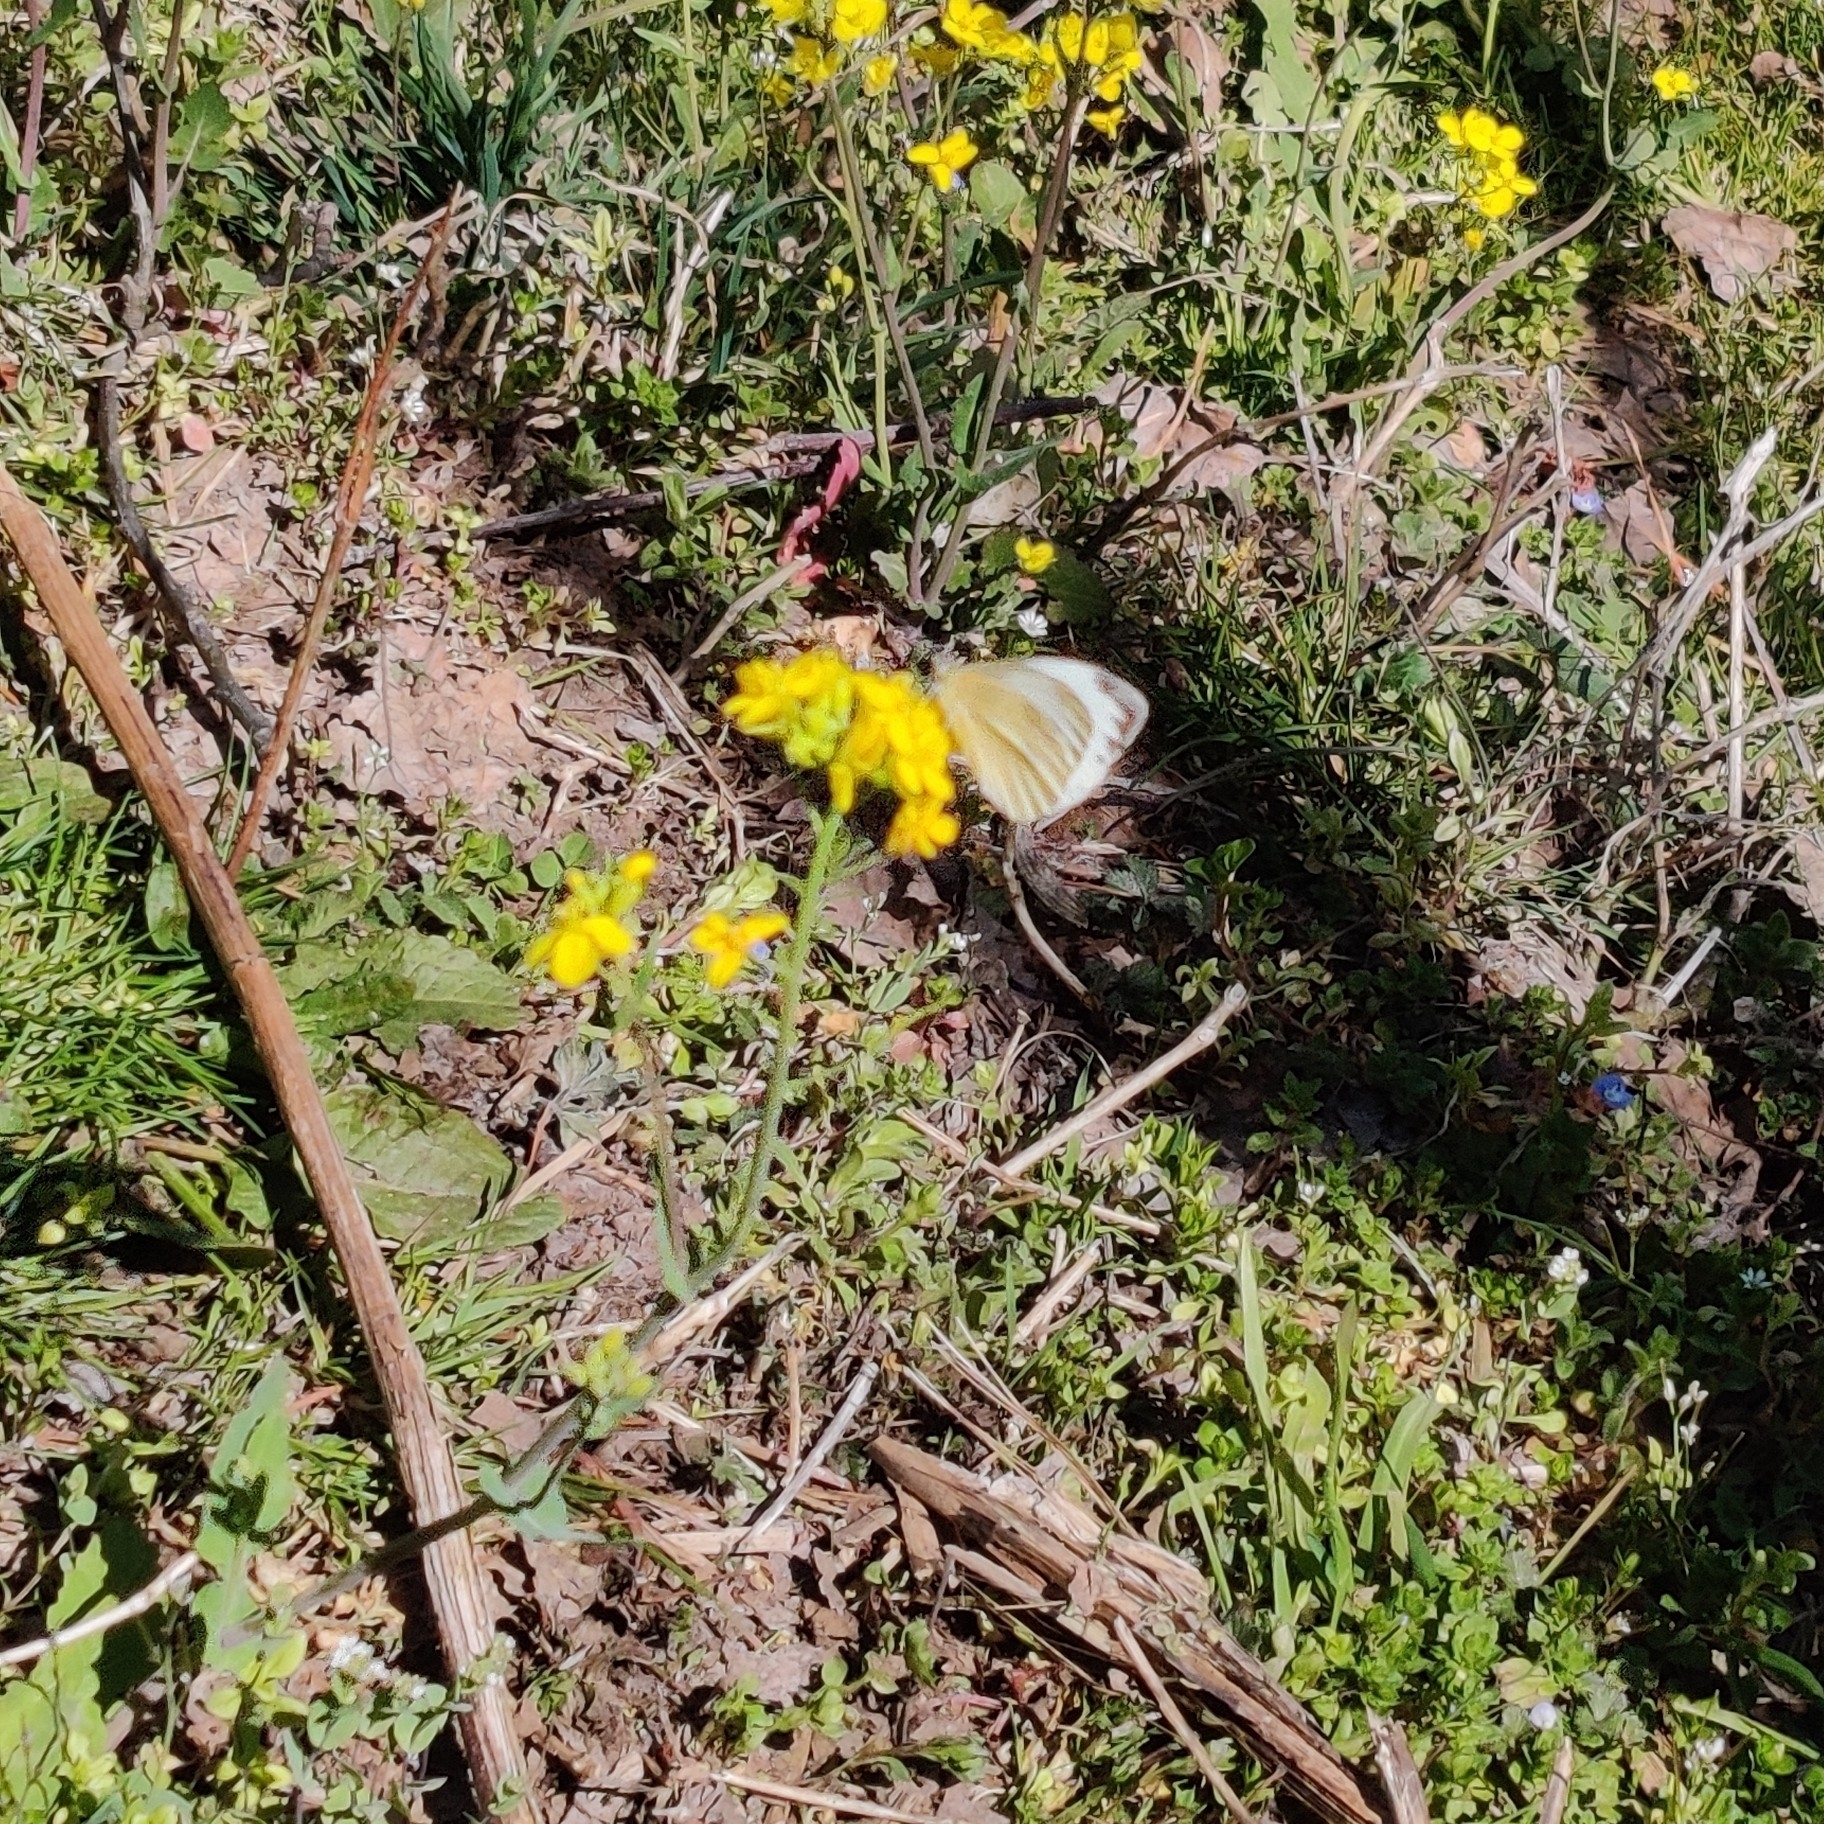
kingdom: Animalia
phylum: Arthropoda
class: Insecta
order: Lepidoptera
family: Pieridae
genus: Pieris
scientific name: Pieris canidia
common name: Indian cabbage white
